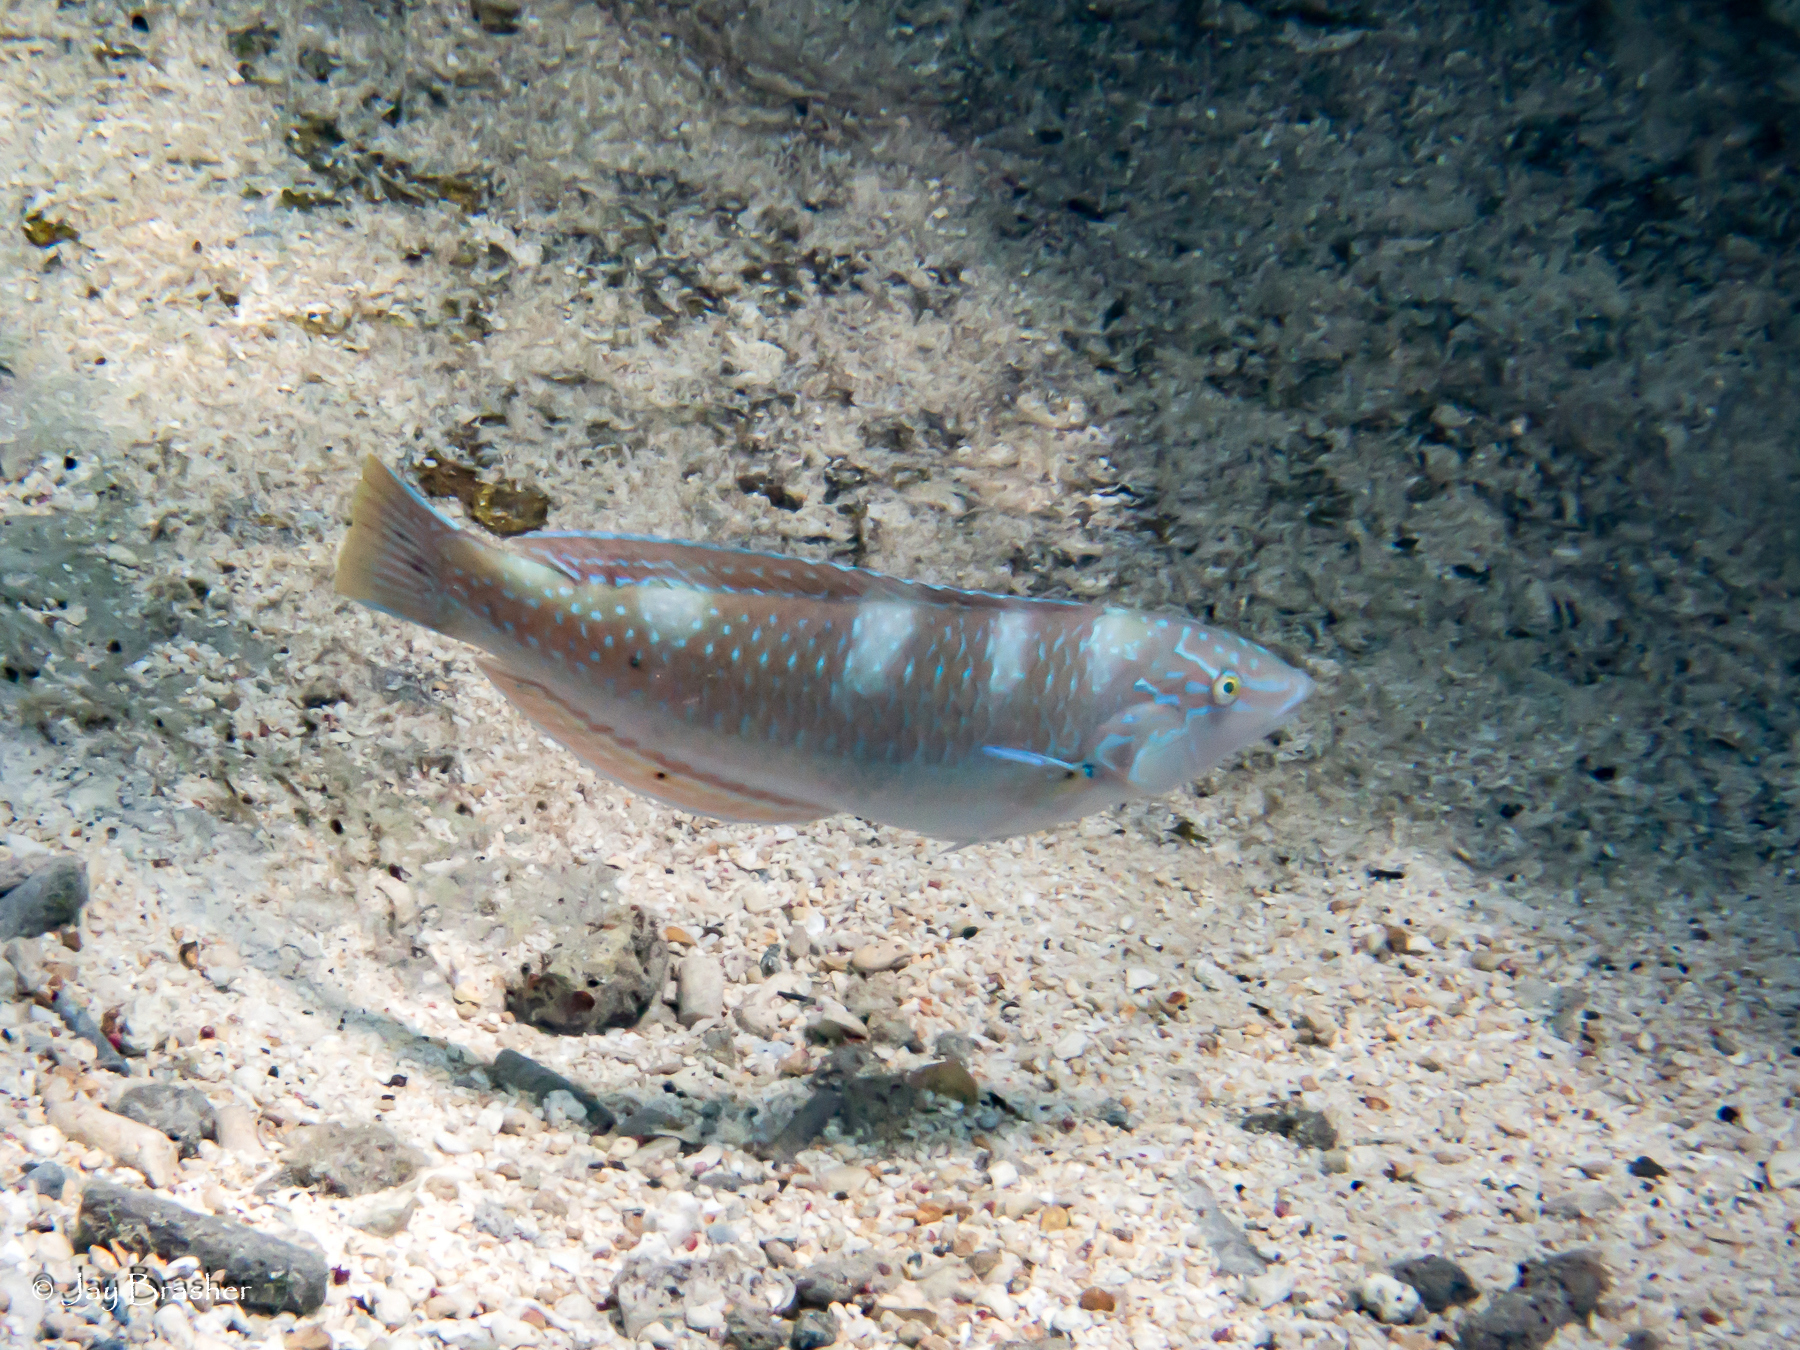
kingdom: Animalia
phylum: Chordata
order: Perciformes
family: Labridae
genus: Halichoeres
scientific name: Halichoeres radiatus
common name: Puddingwife
